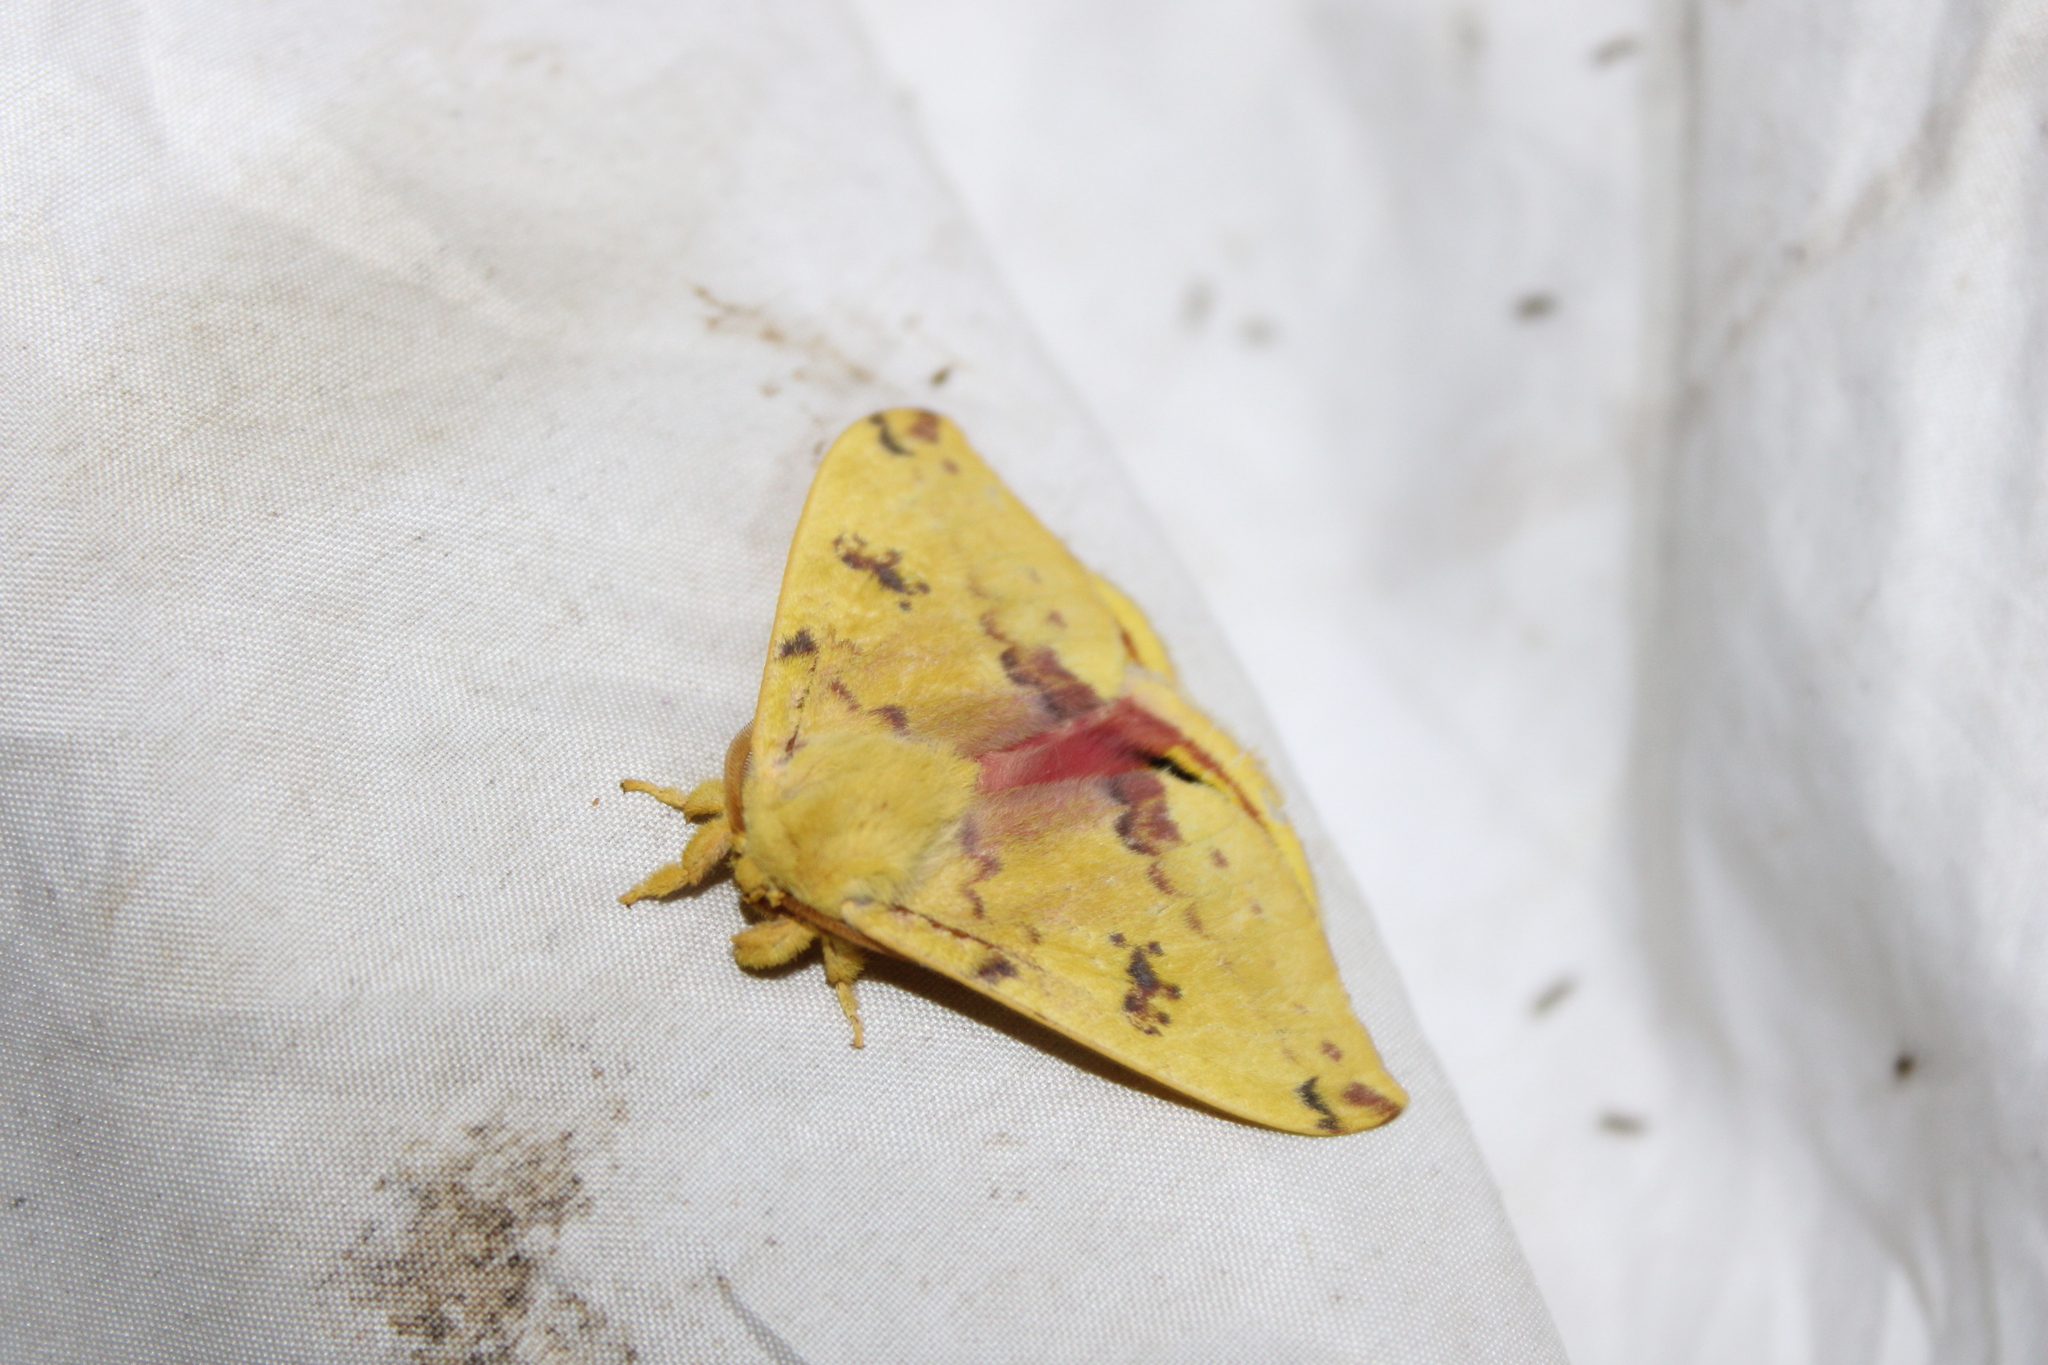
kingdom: Animalia
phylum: Arthropoda
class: Insecta
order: Lepidoptera
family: Saturniidae
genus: Automeris
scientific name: Automeris io
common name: Io moth
